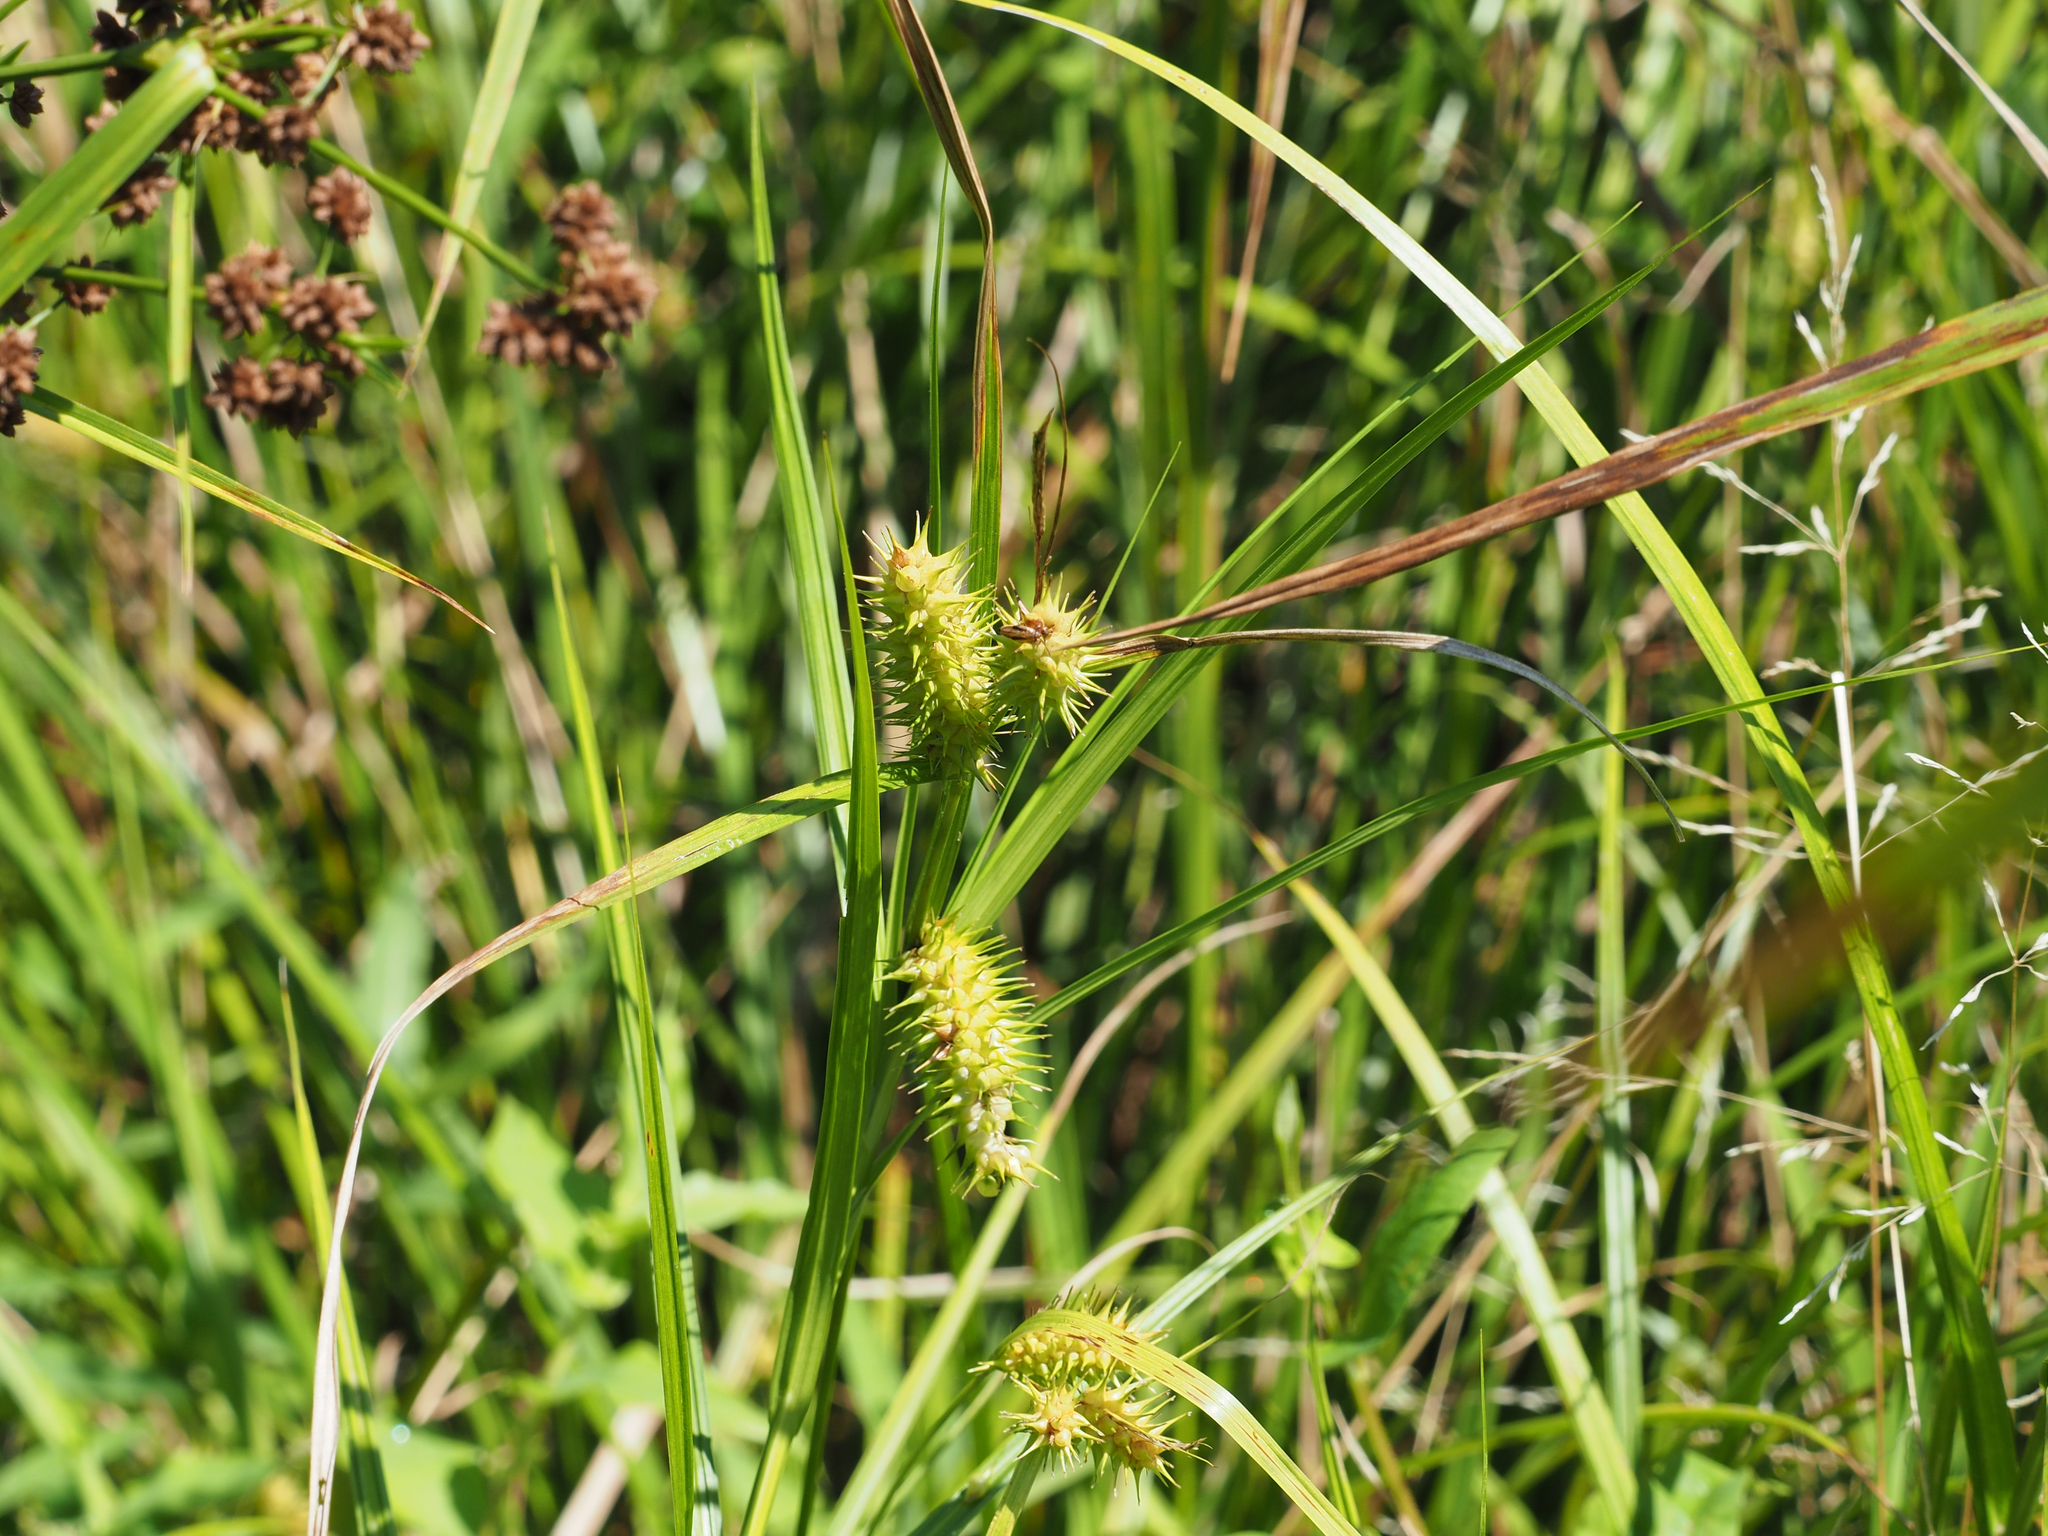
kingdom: Plantae
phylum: Tracheophyta
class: Liliopsida
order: Poales
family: Cyperaceae
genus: Carex
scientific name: Carex lurida
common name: Sallow sedge
